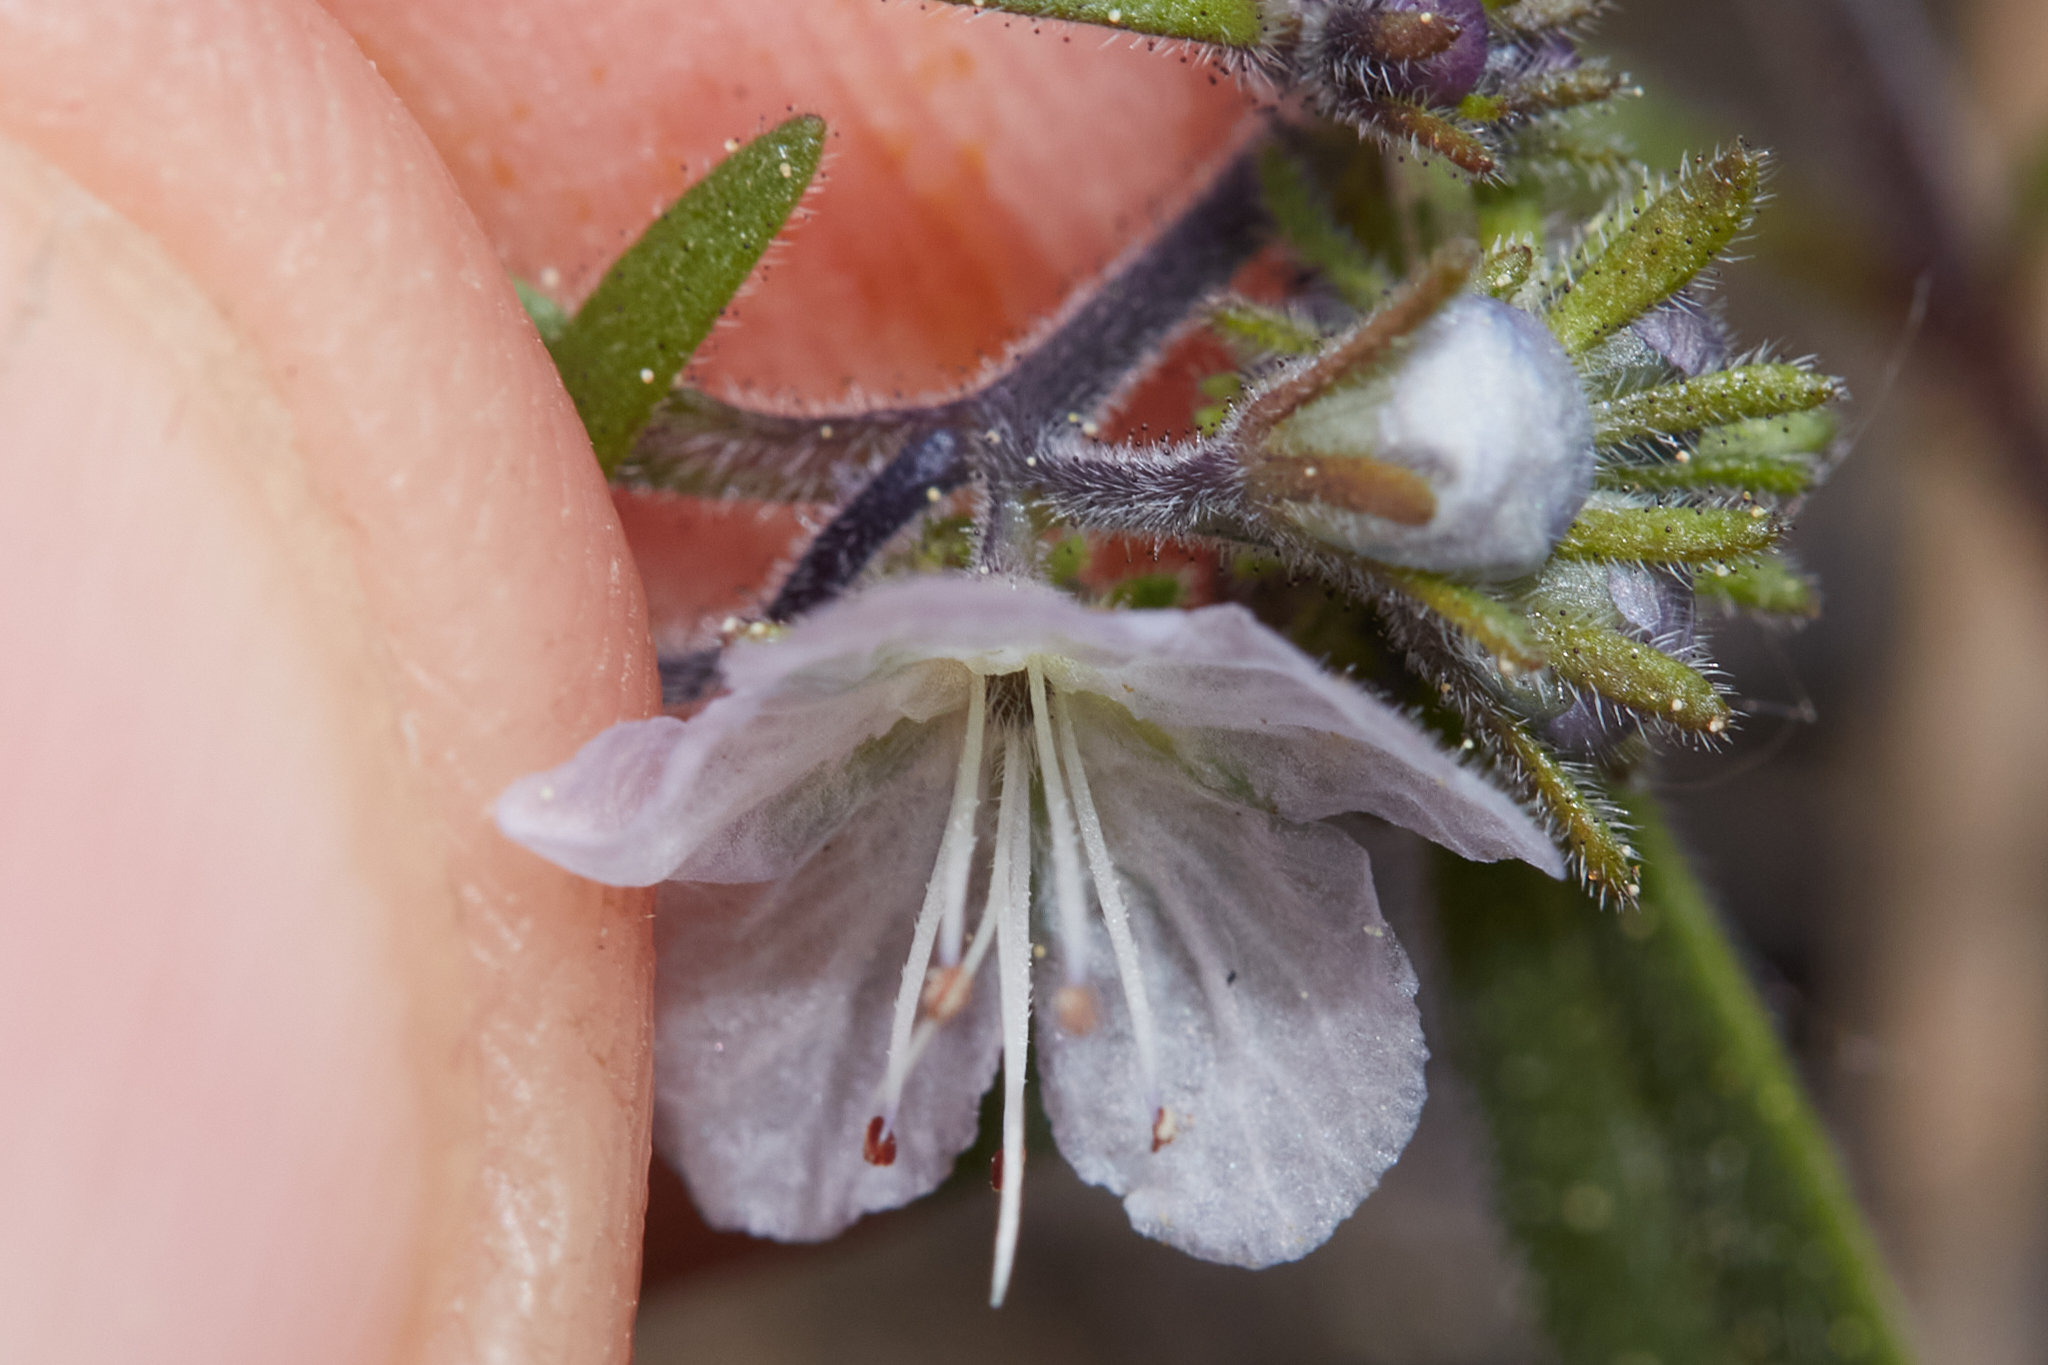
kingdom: Plantae
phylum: Tracheophyta
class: Magnoliopsida
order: Boraginales
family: Hydrophyllaceae
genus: Phacelia
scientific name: Phacelia pringlei
